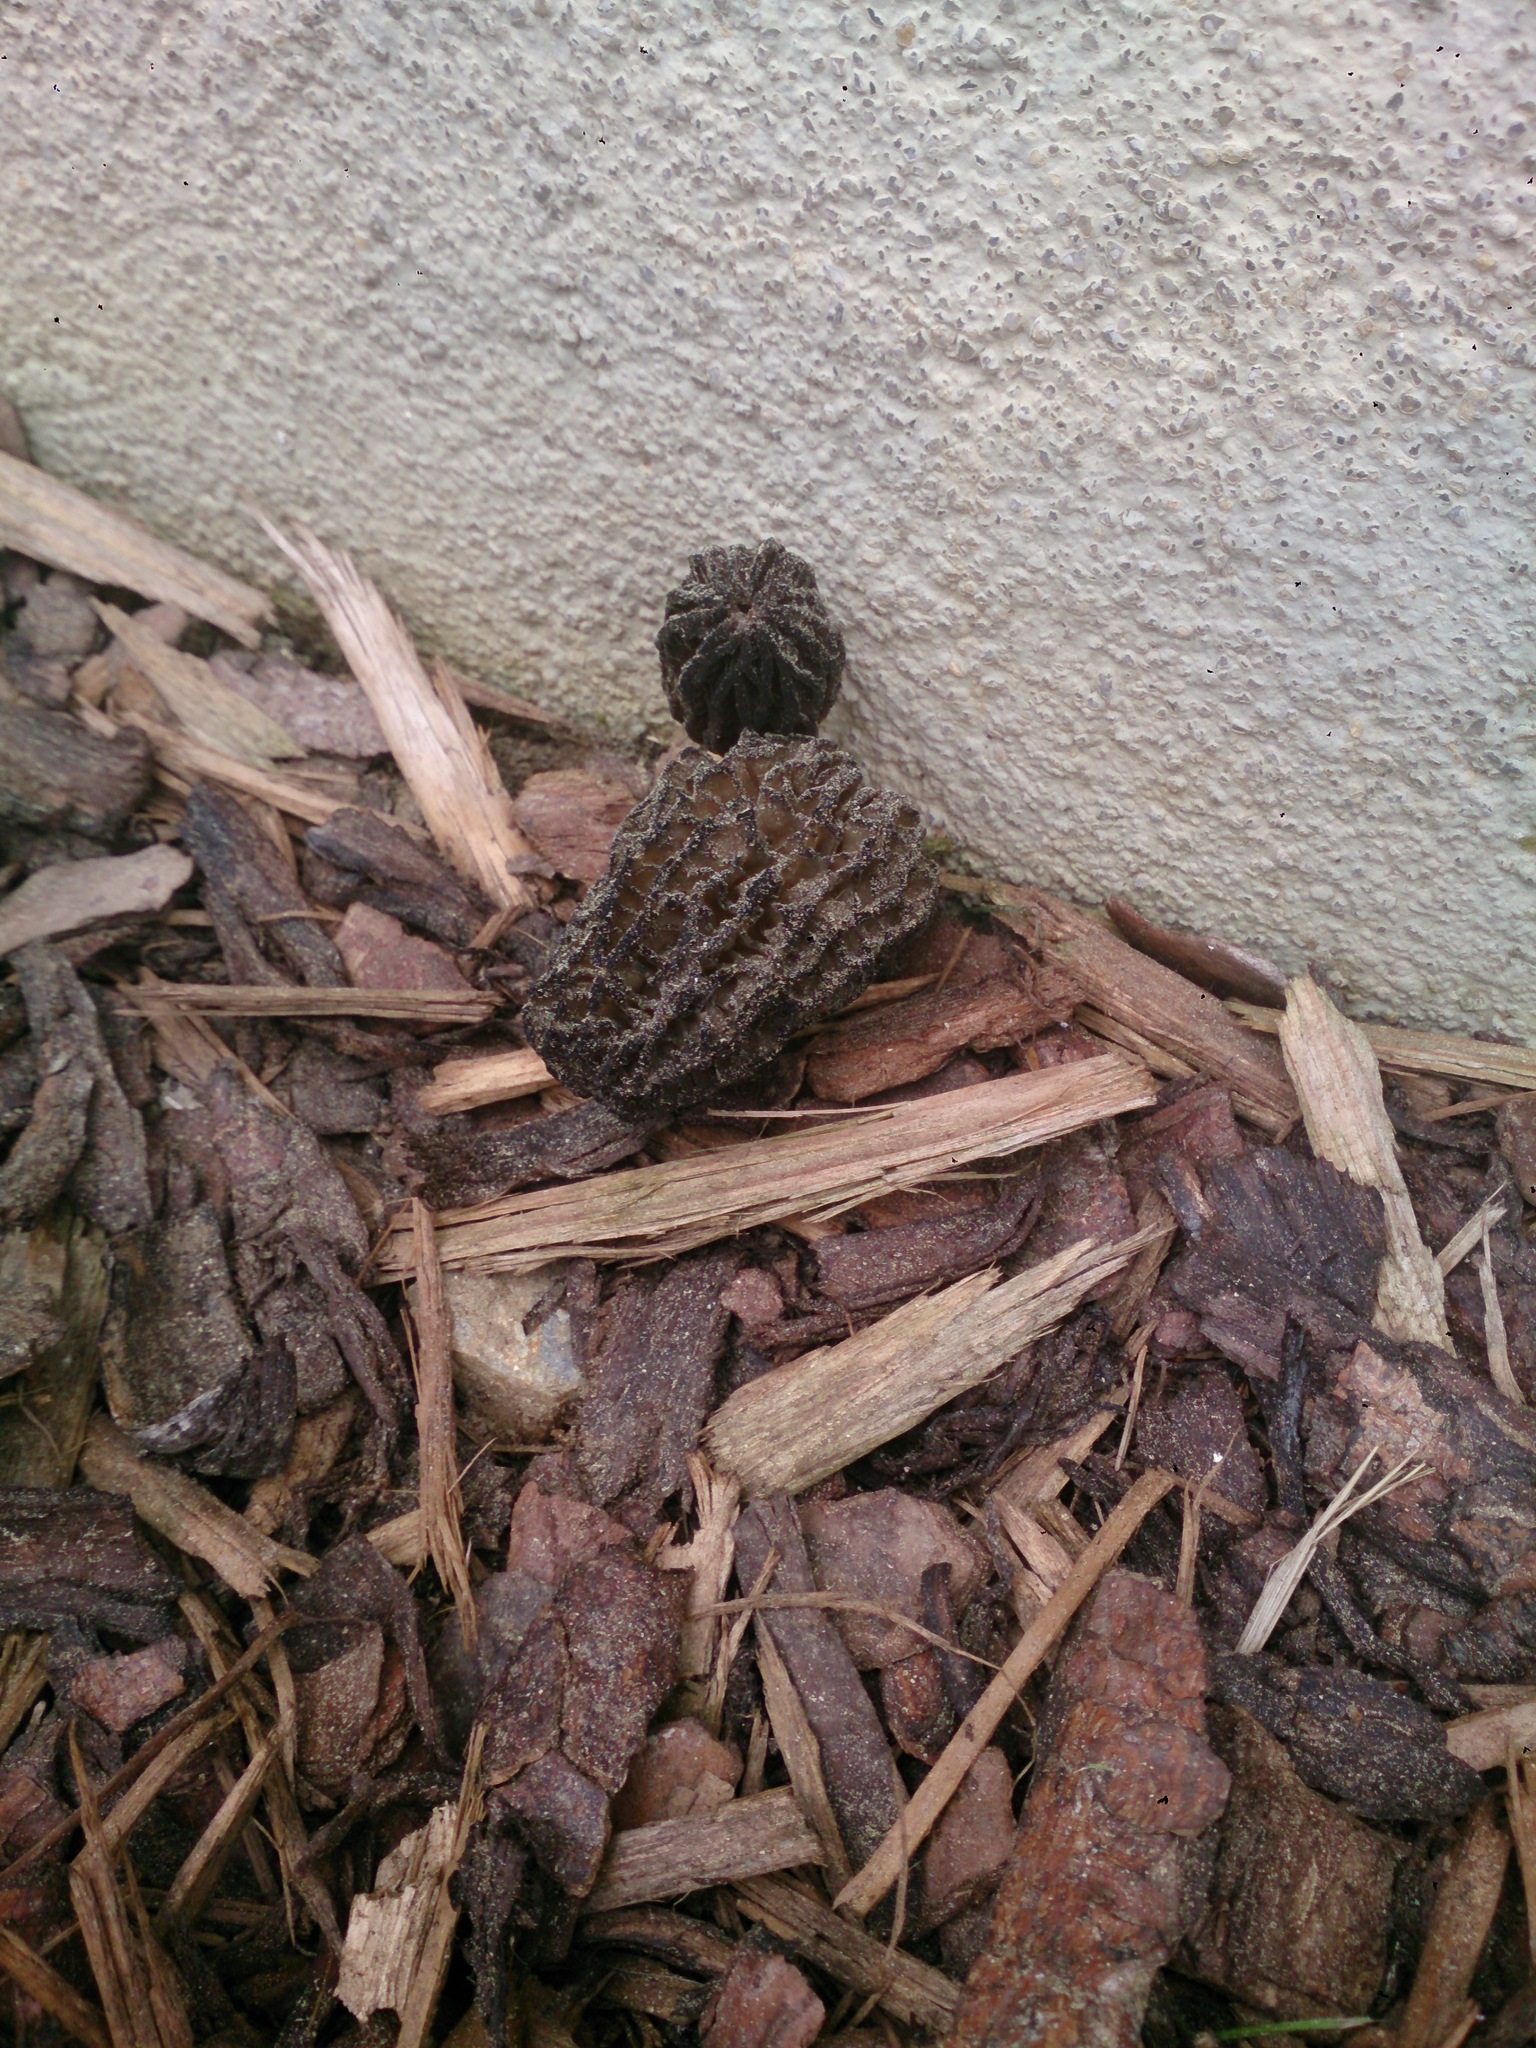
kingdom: Fungi
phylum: Ascomycota
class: Pezizomycetes
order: Pezizales
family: Morchellaceae
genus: Morchella
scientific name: Morchella elata
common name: Black morel
